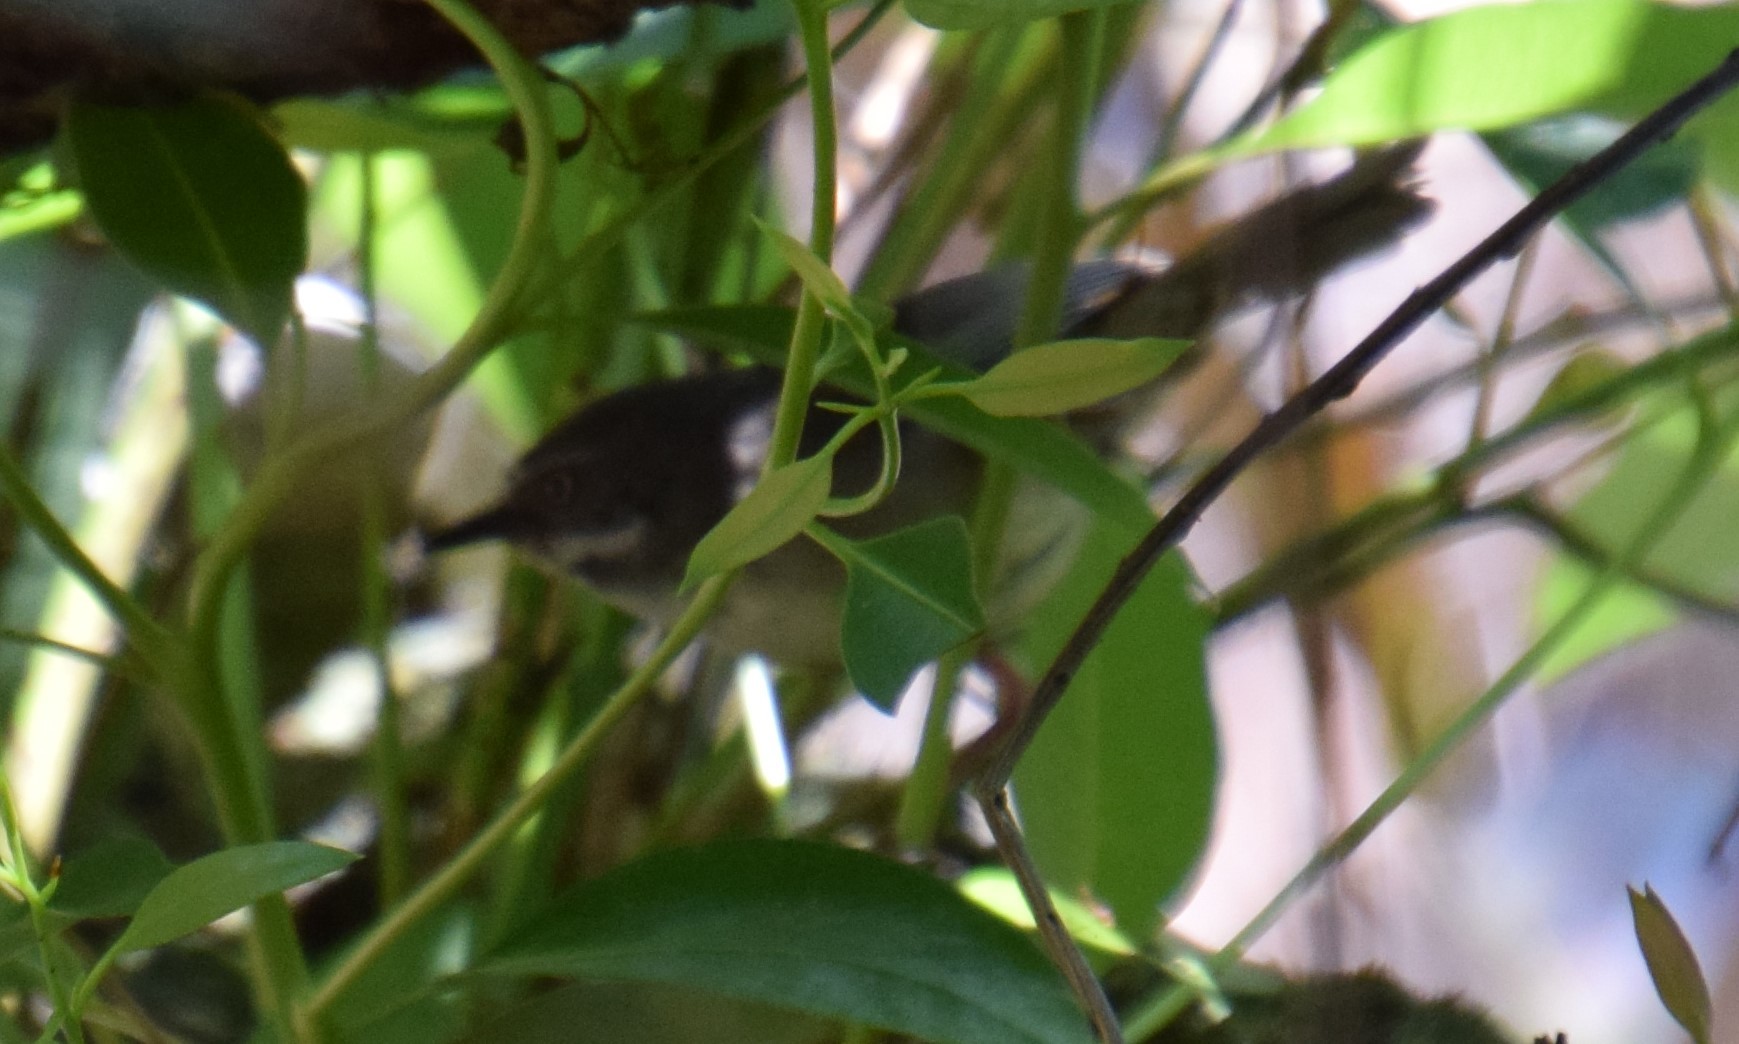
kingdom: Animalia
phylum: Chordata
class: Aves
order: Passeriformes
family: Acanthizidae
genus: Sericornis
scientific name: Sericornis frontalis
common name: White-browed scrubwren
